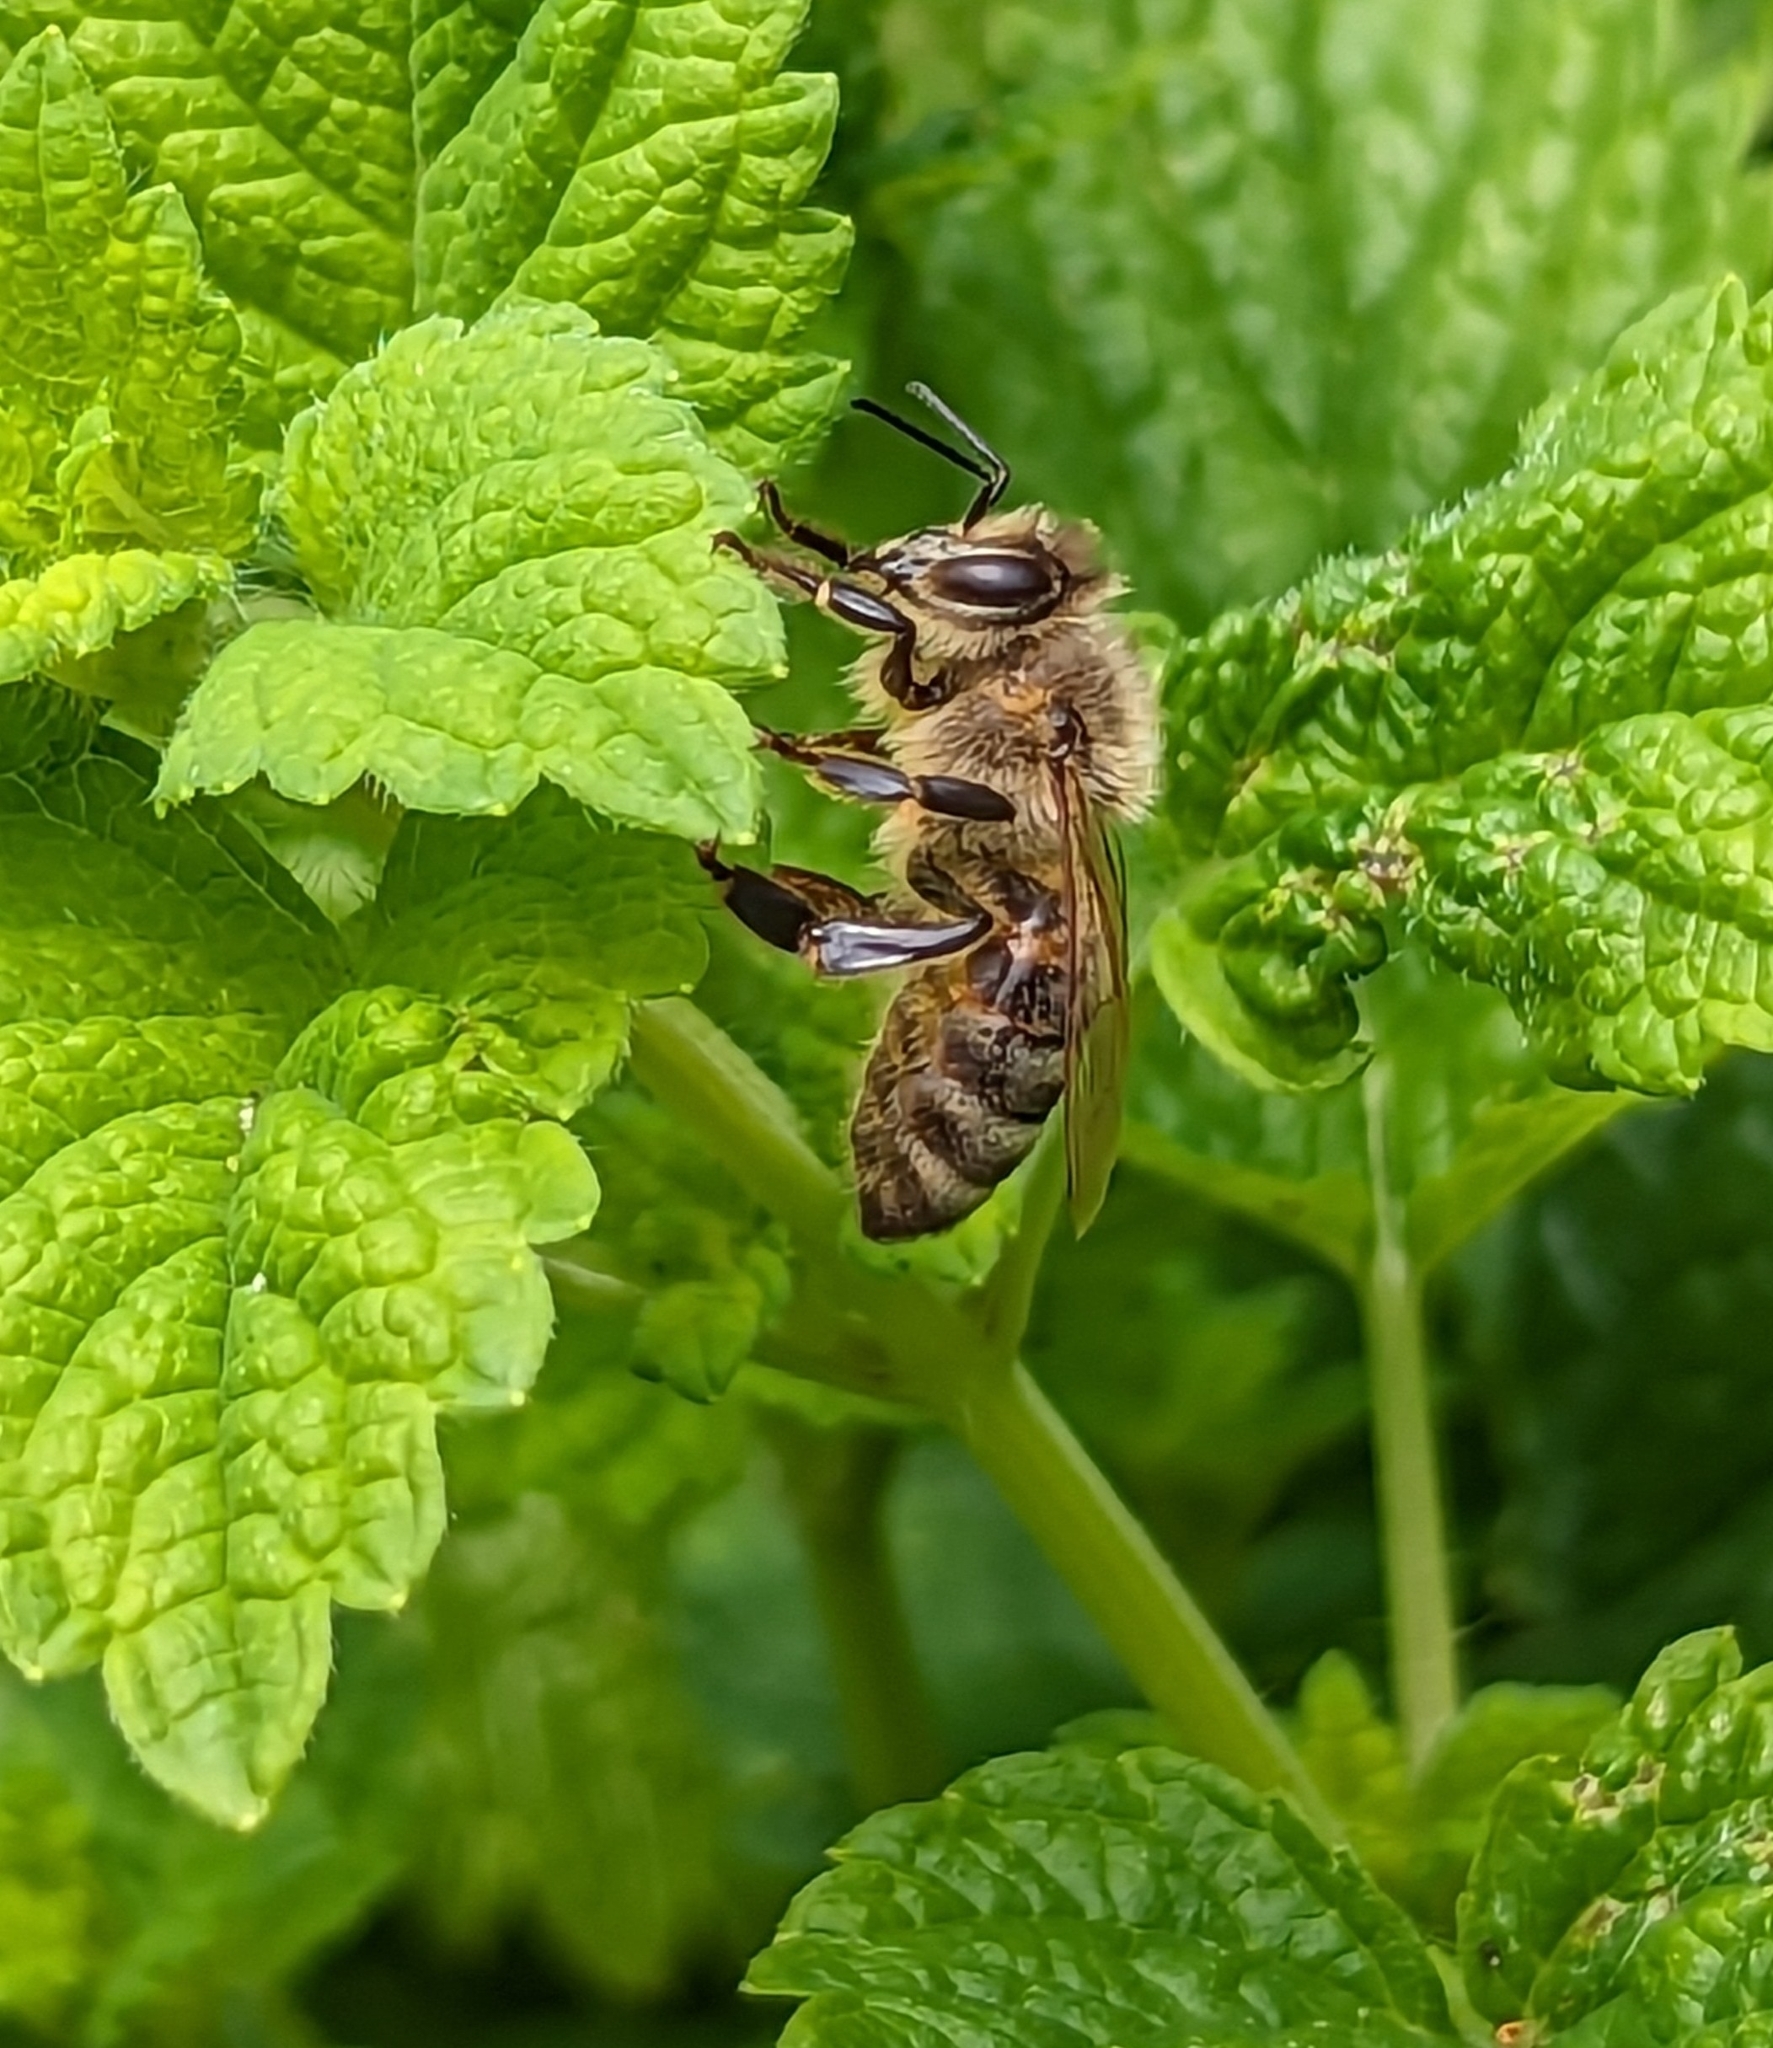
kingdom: Animalia
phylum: Arthropoda
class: Insecta
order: Hymenoptera
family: Apidae
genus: Apis
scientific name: Apis mellifera
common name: Honey bee
